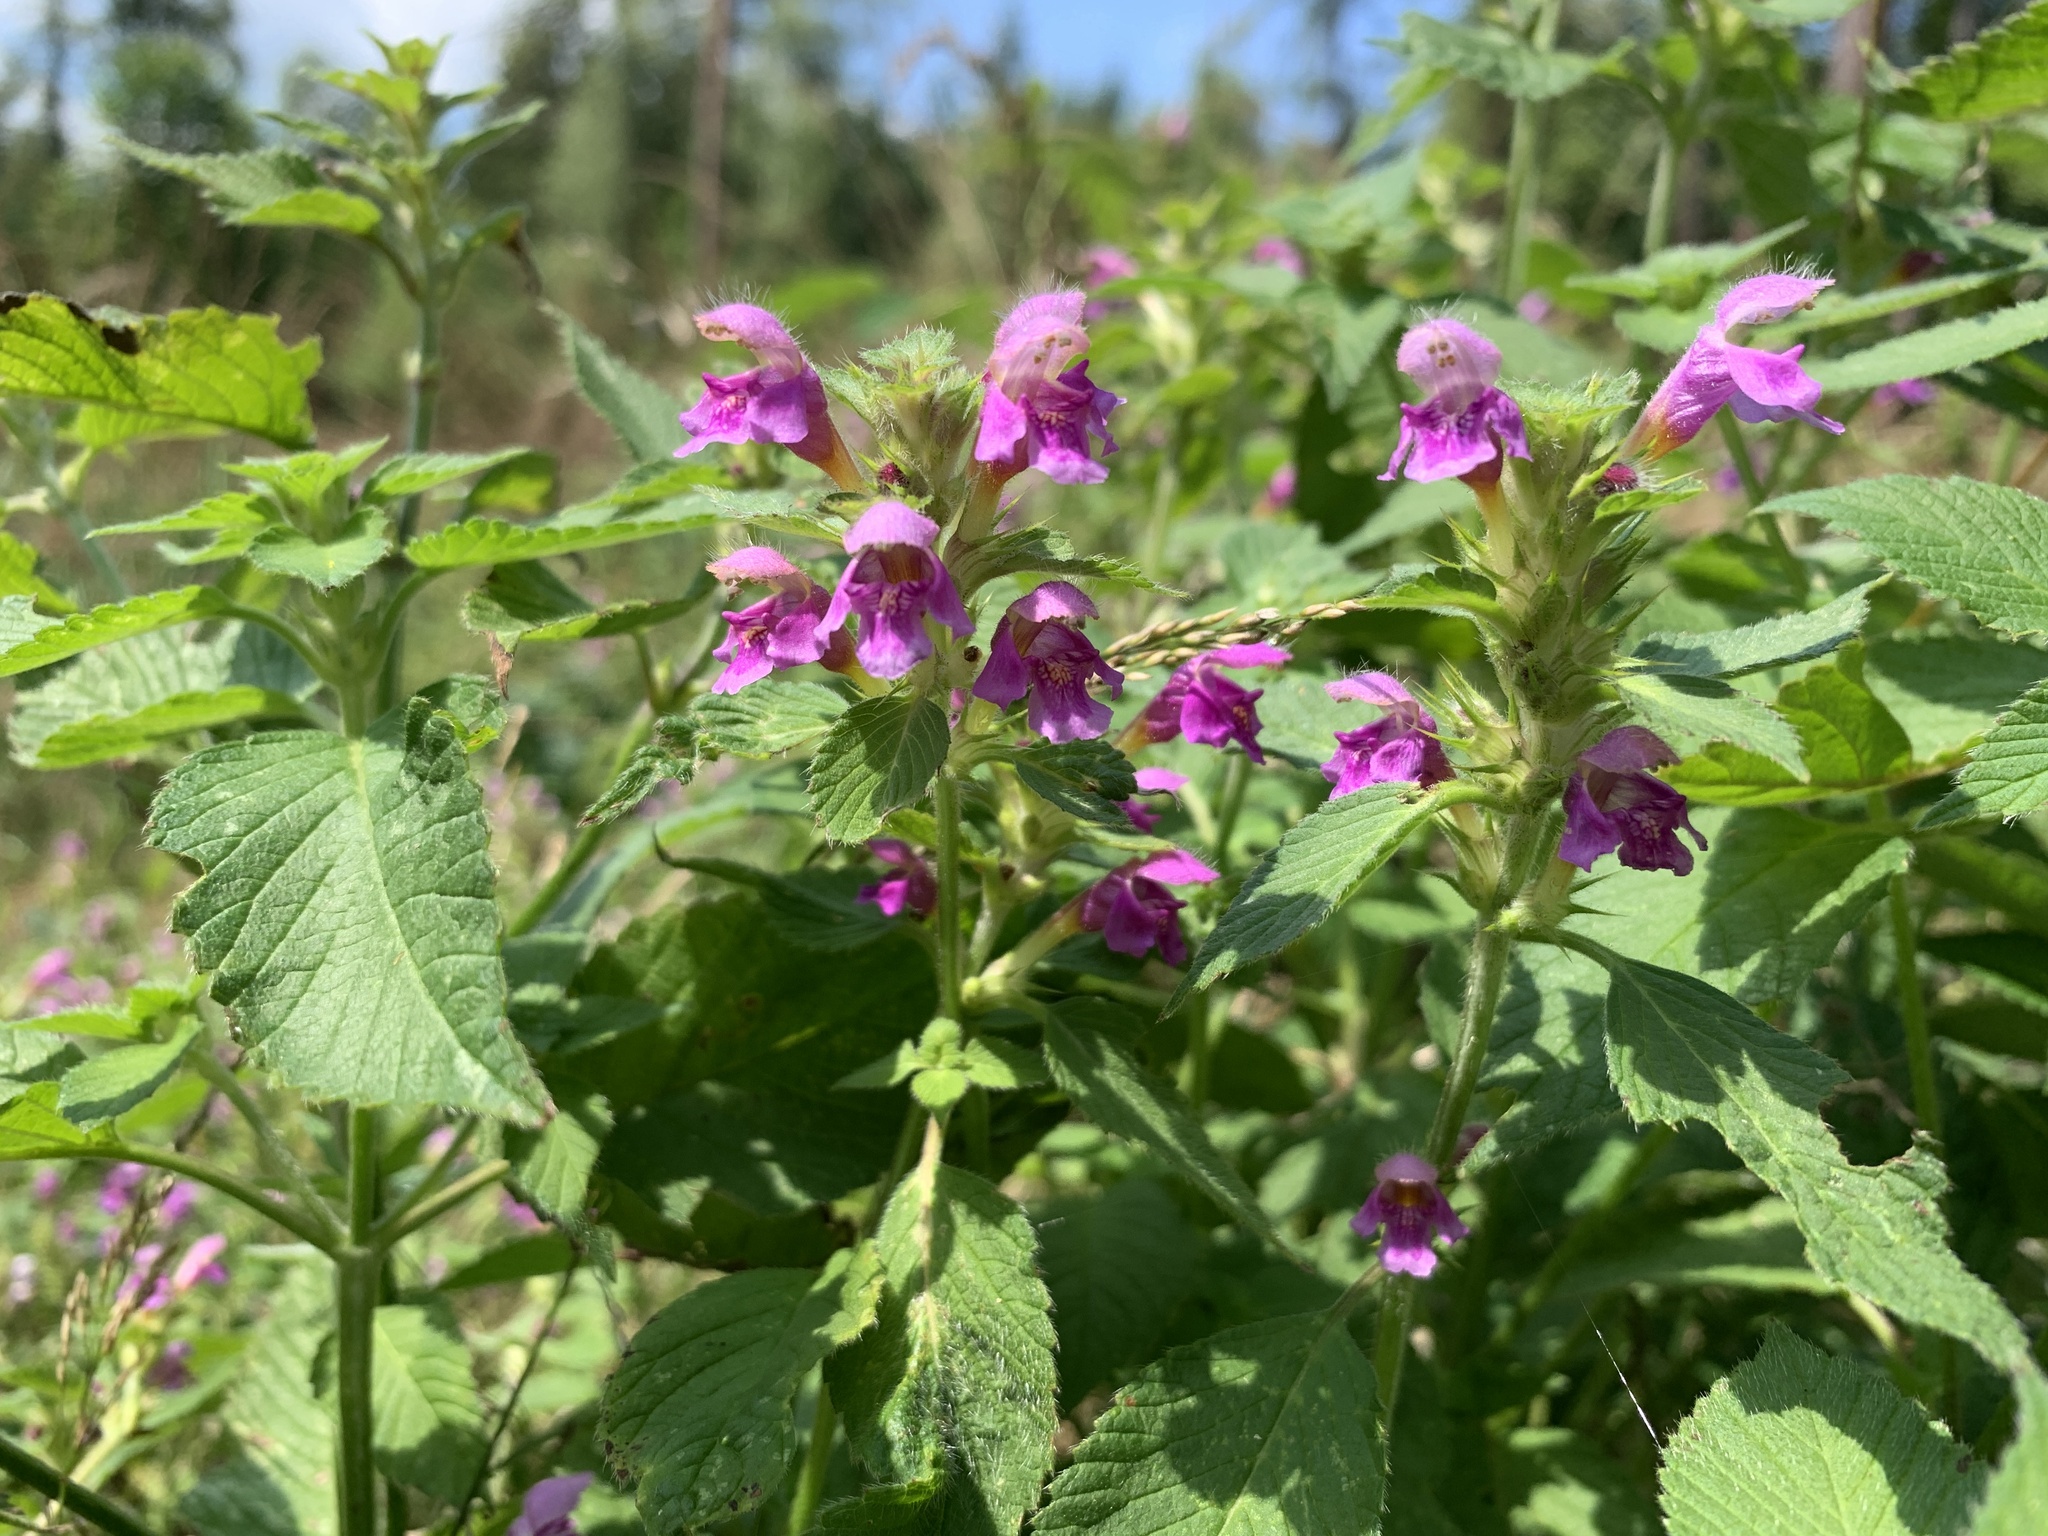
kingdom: Plantae
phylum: Tracheophyta
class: Magnoliopsida
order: Lamiales
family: Lamiaceae
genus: Galeopsis
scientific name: Galeopsis pubescens
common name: Downy hemp-nettle
